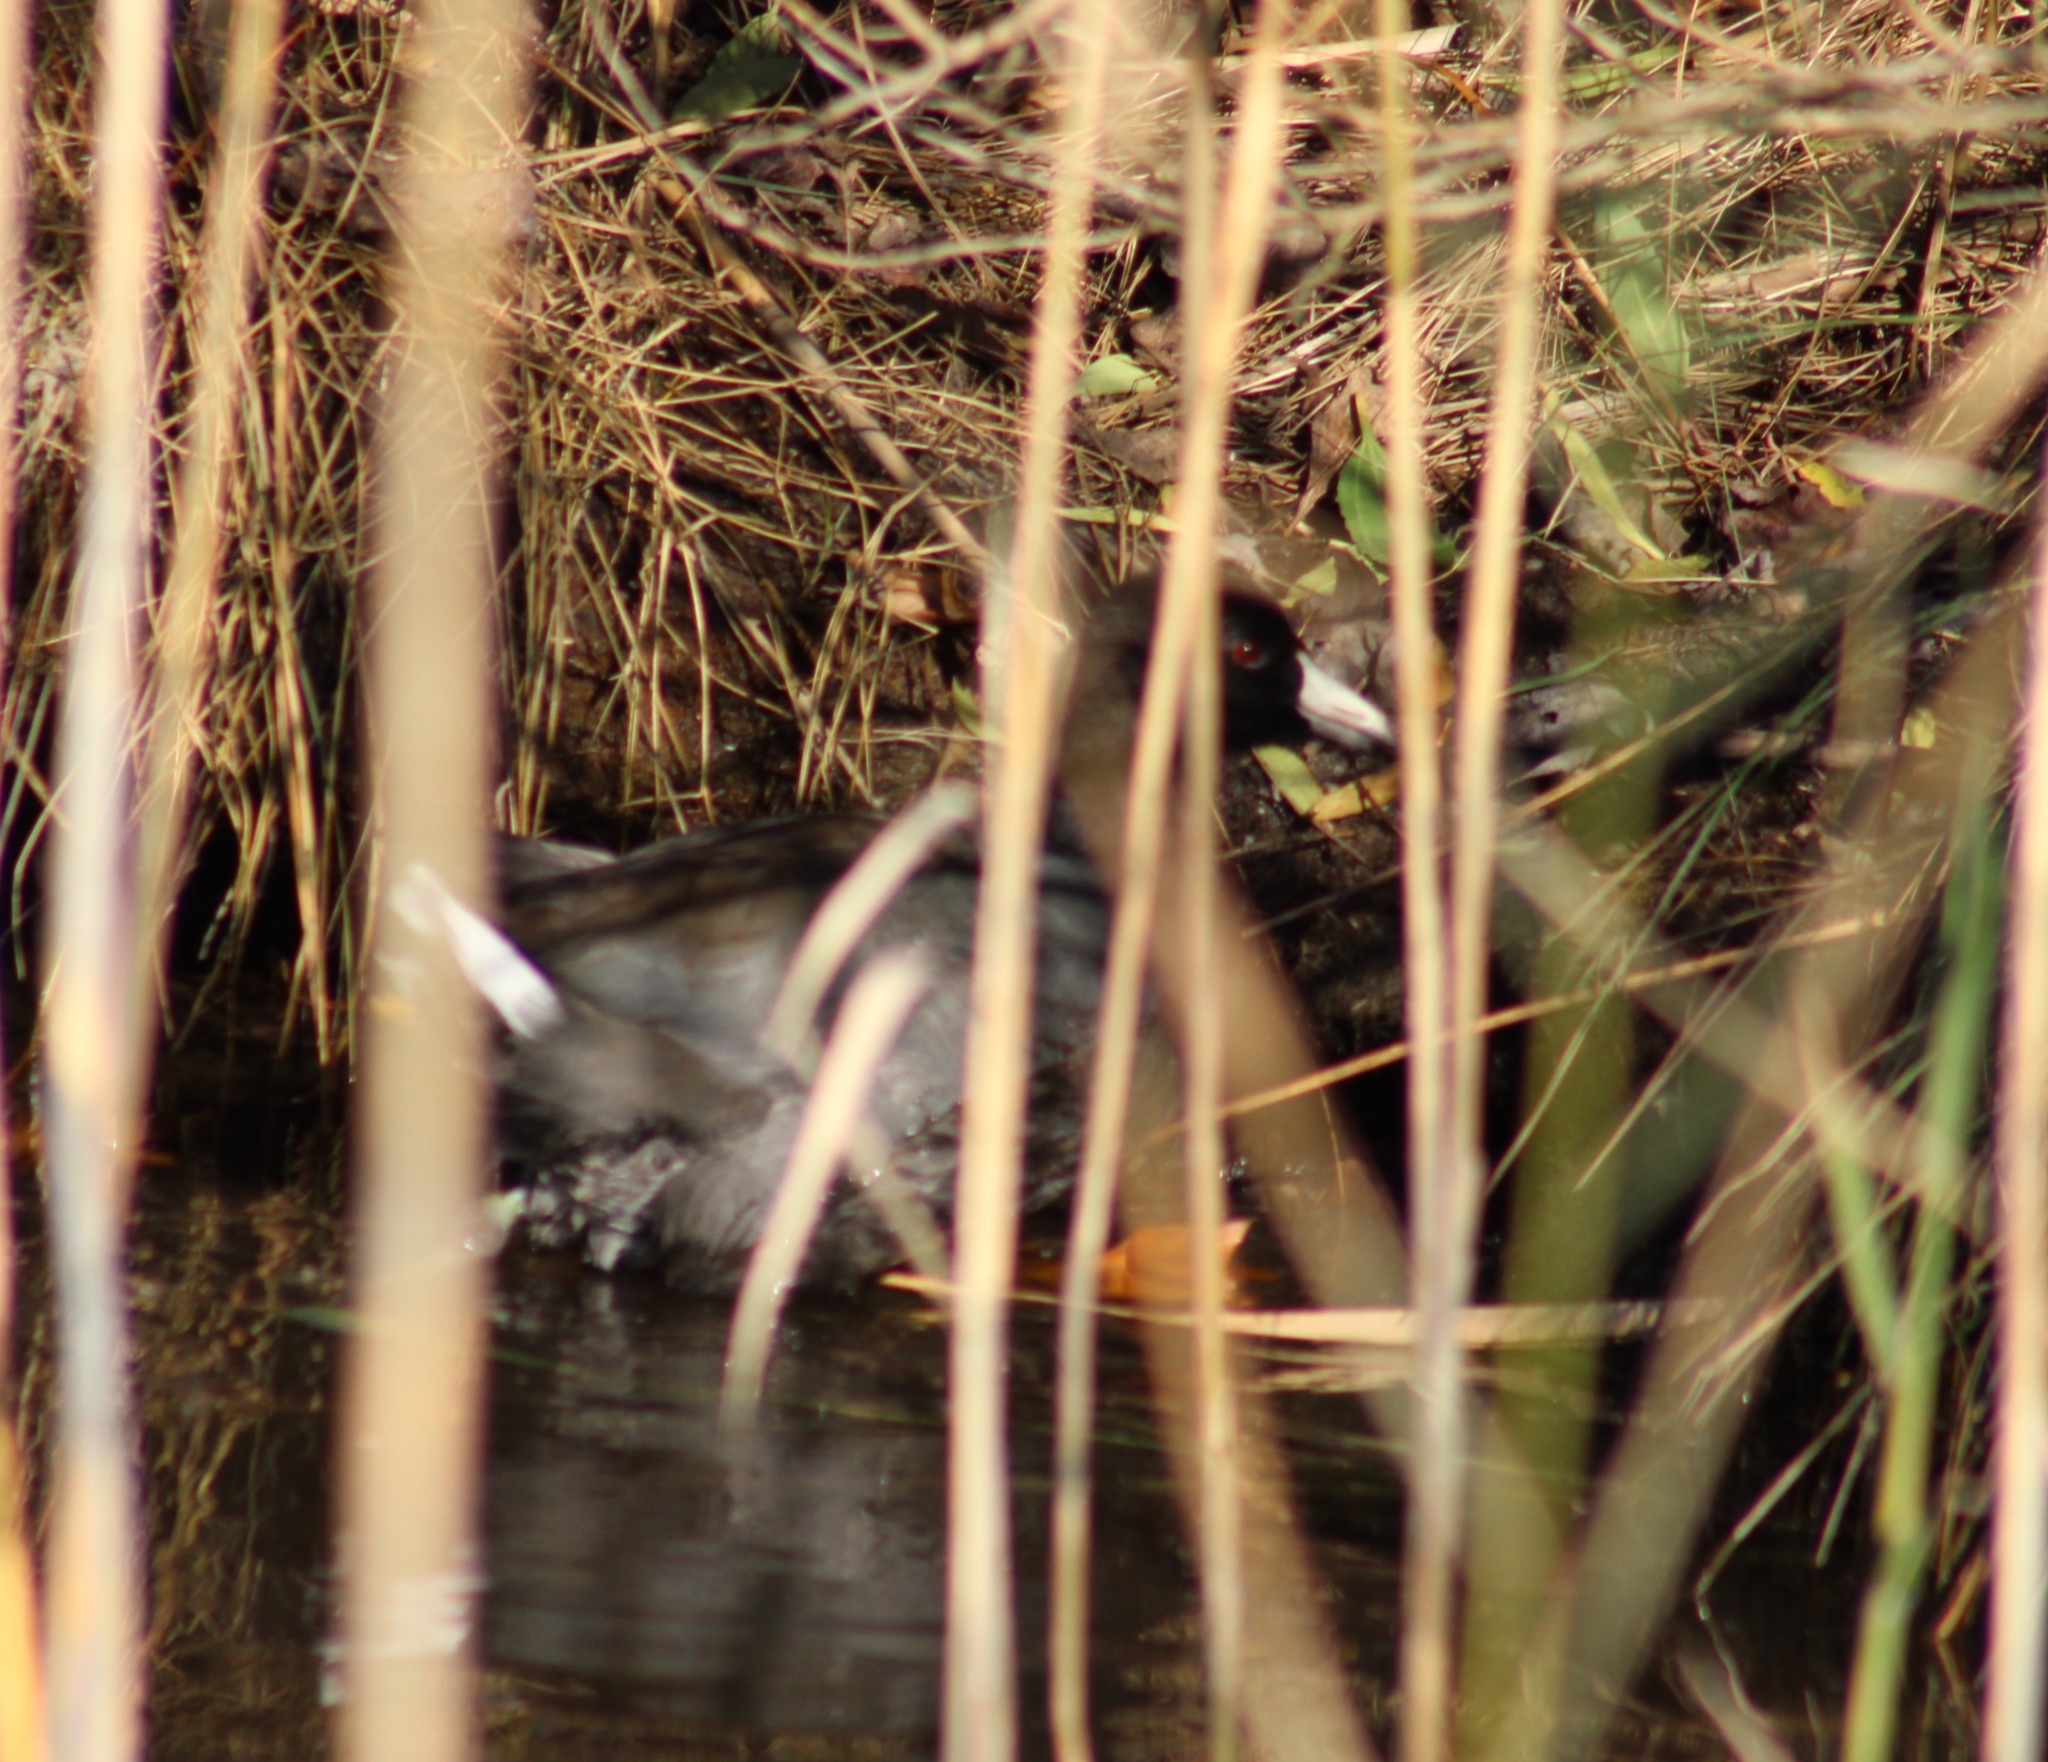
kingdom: Animalia
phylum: Chordata
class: Aves
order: Gruiformes
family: Rallidae
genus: Fulica
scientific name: Fulica americana
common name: American coot
